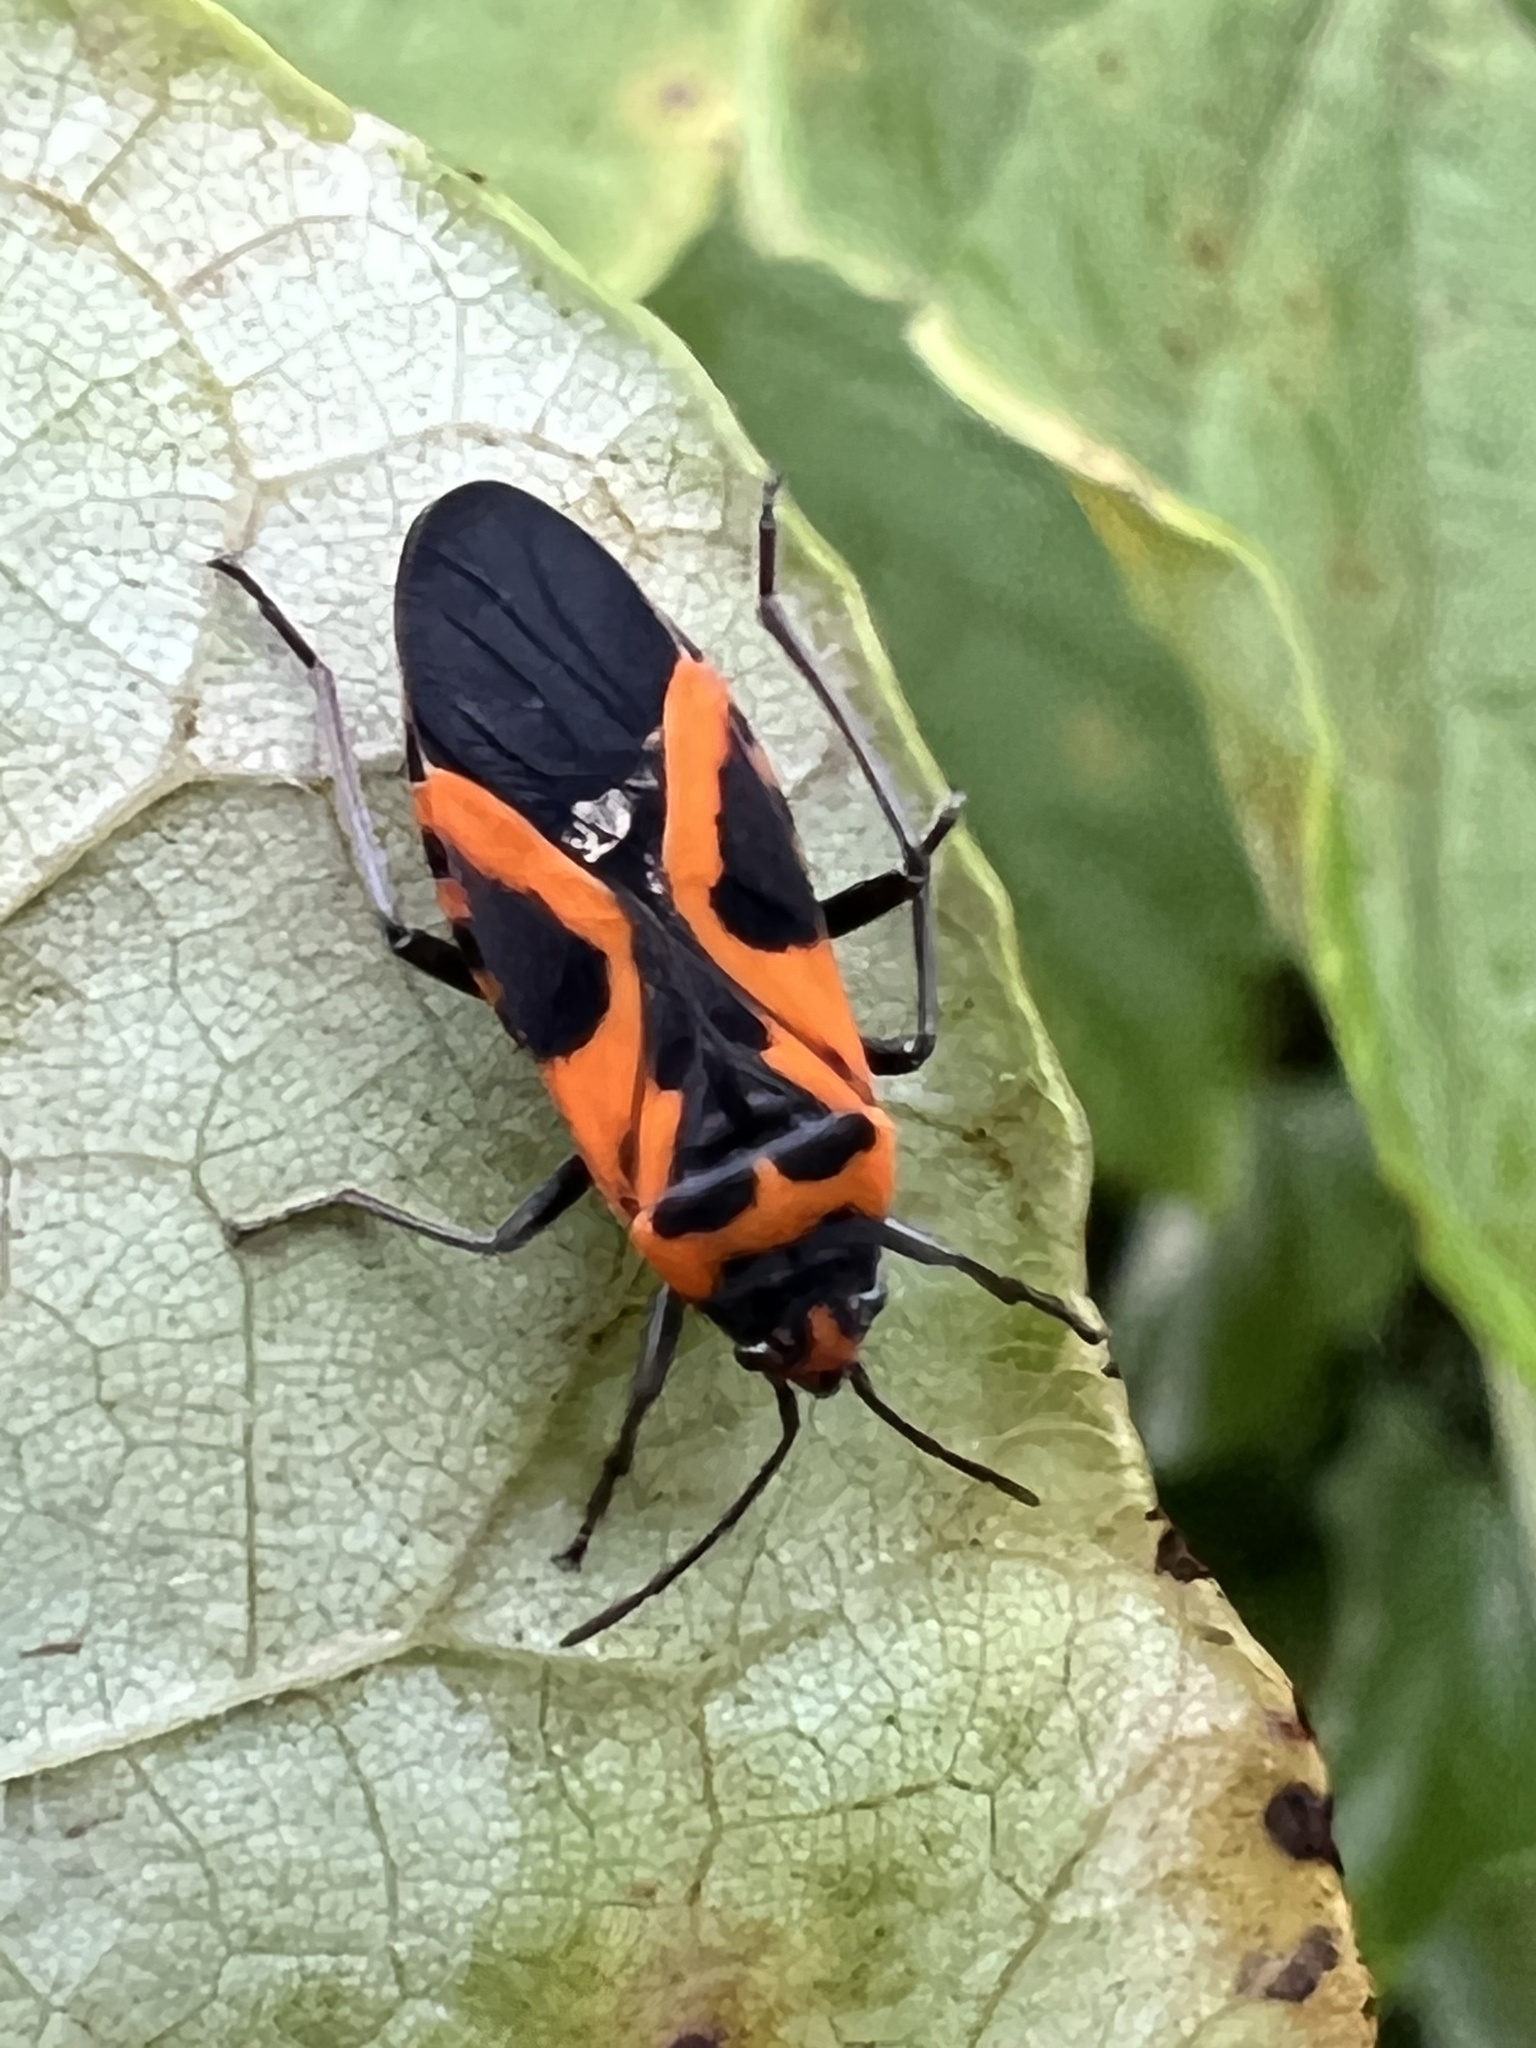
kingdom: Animalia
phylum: Arthropoda
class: Insecta
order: Hemiptera
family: Lygaeidae
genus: Lygaeus
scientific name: Lygaeus turcicus
